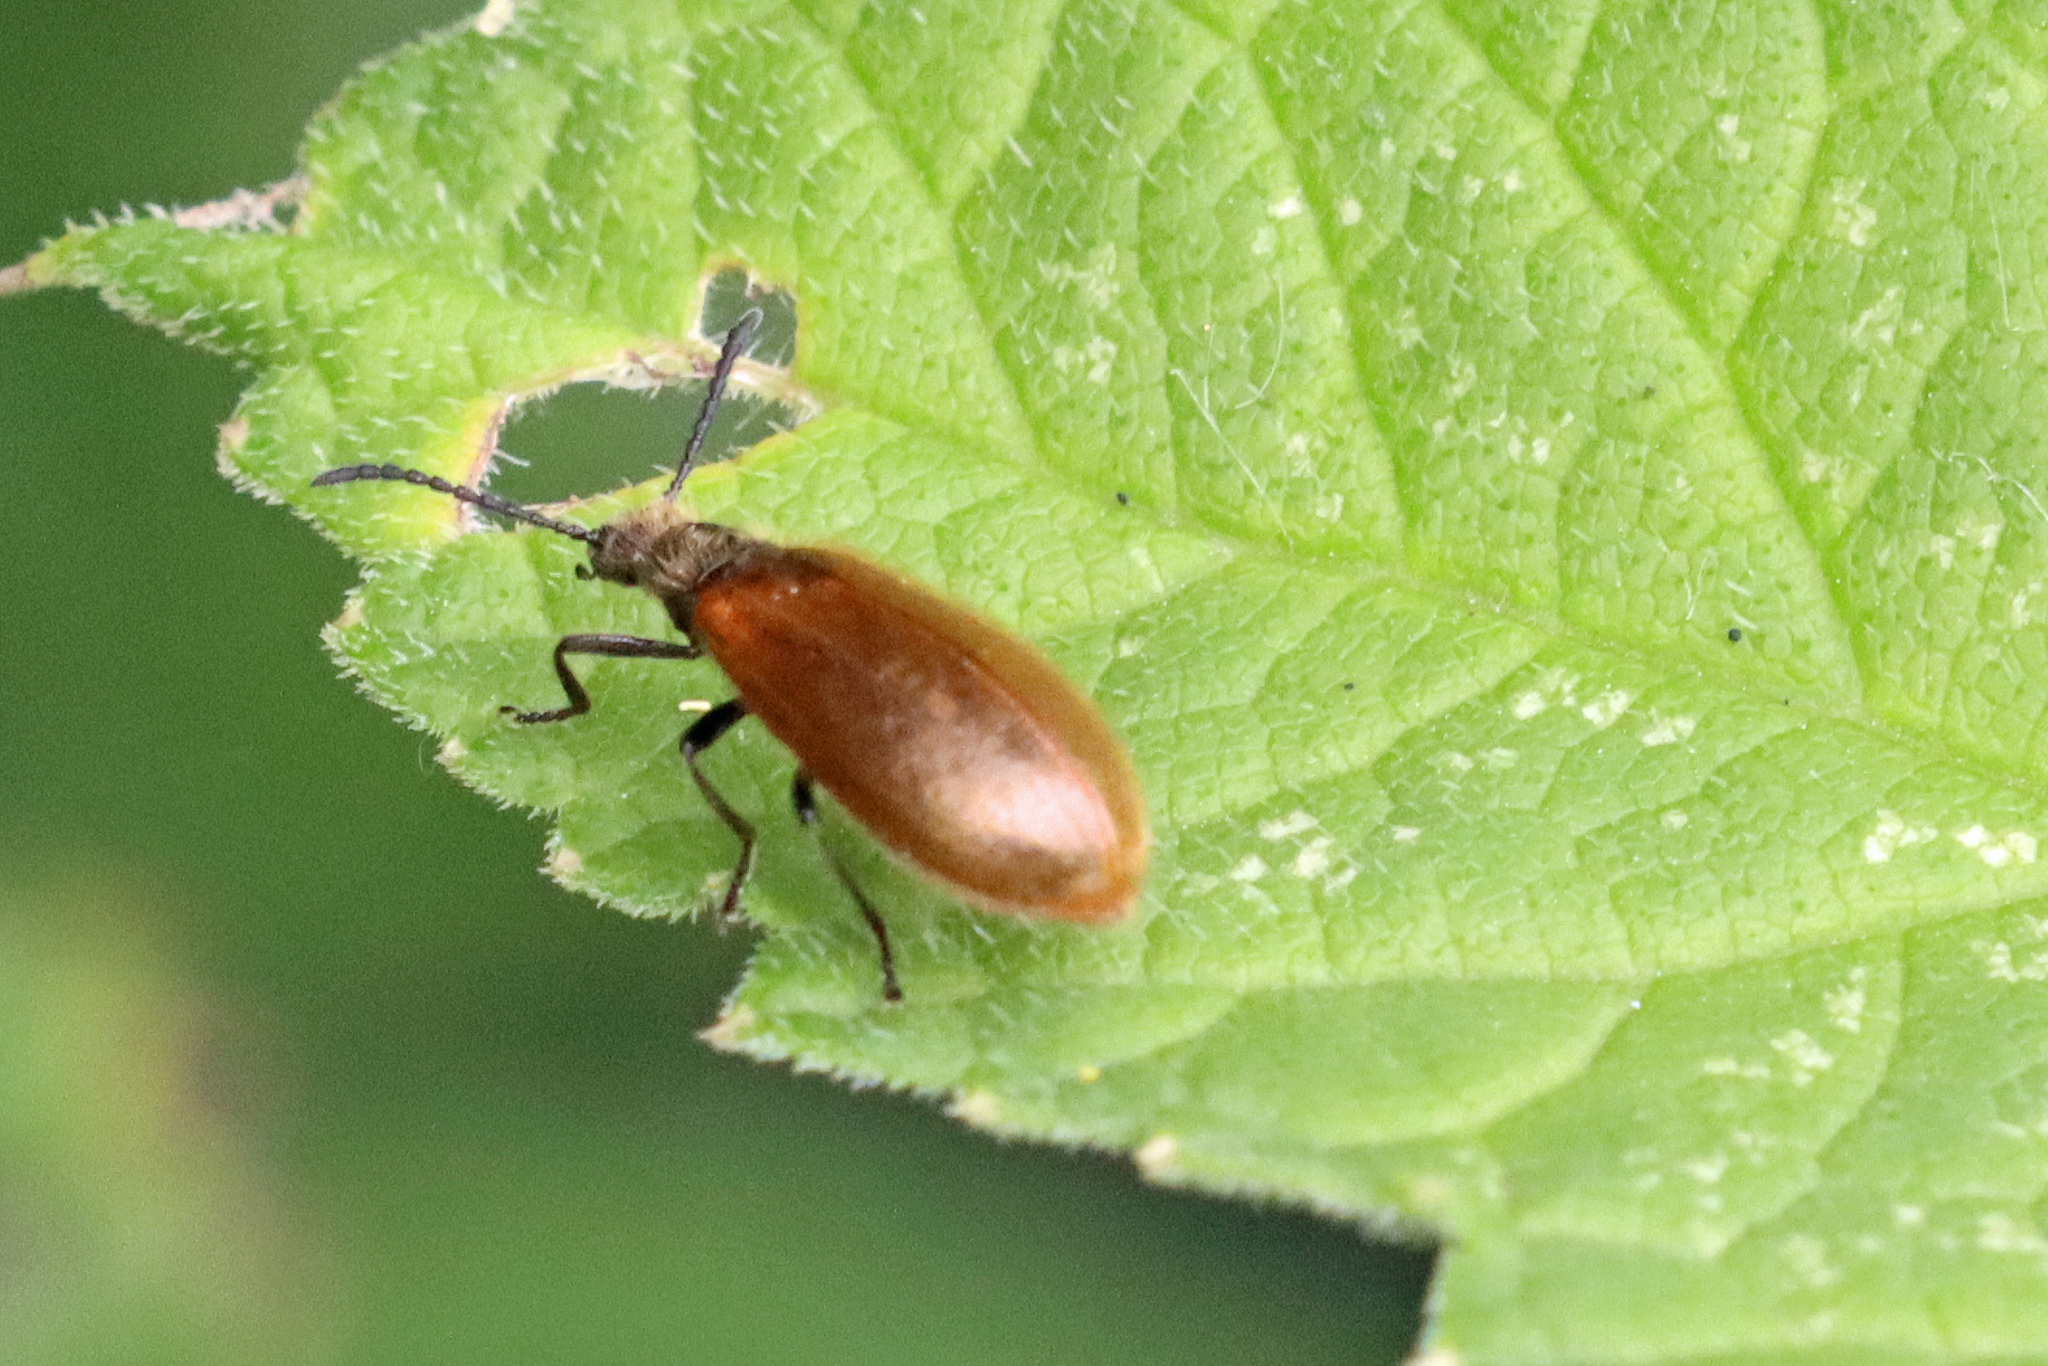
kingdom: Animalia
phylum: Arthropoda
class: Insecta
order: Coleoptera
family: Tenebrionidae
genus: Lagria
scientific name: Lagria hirta
